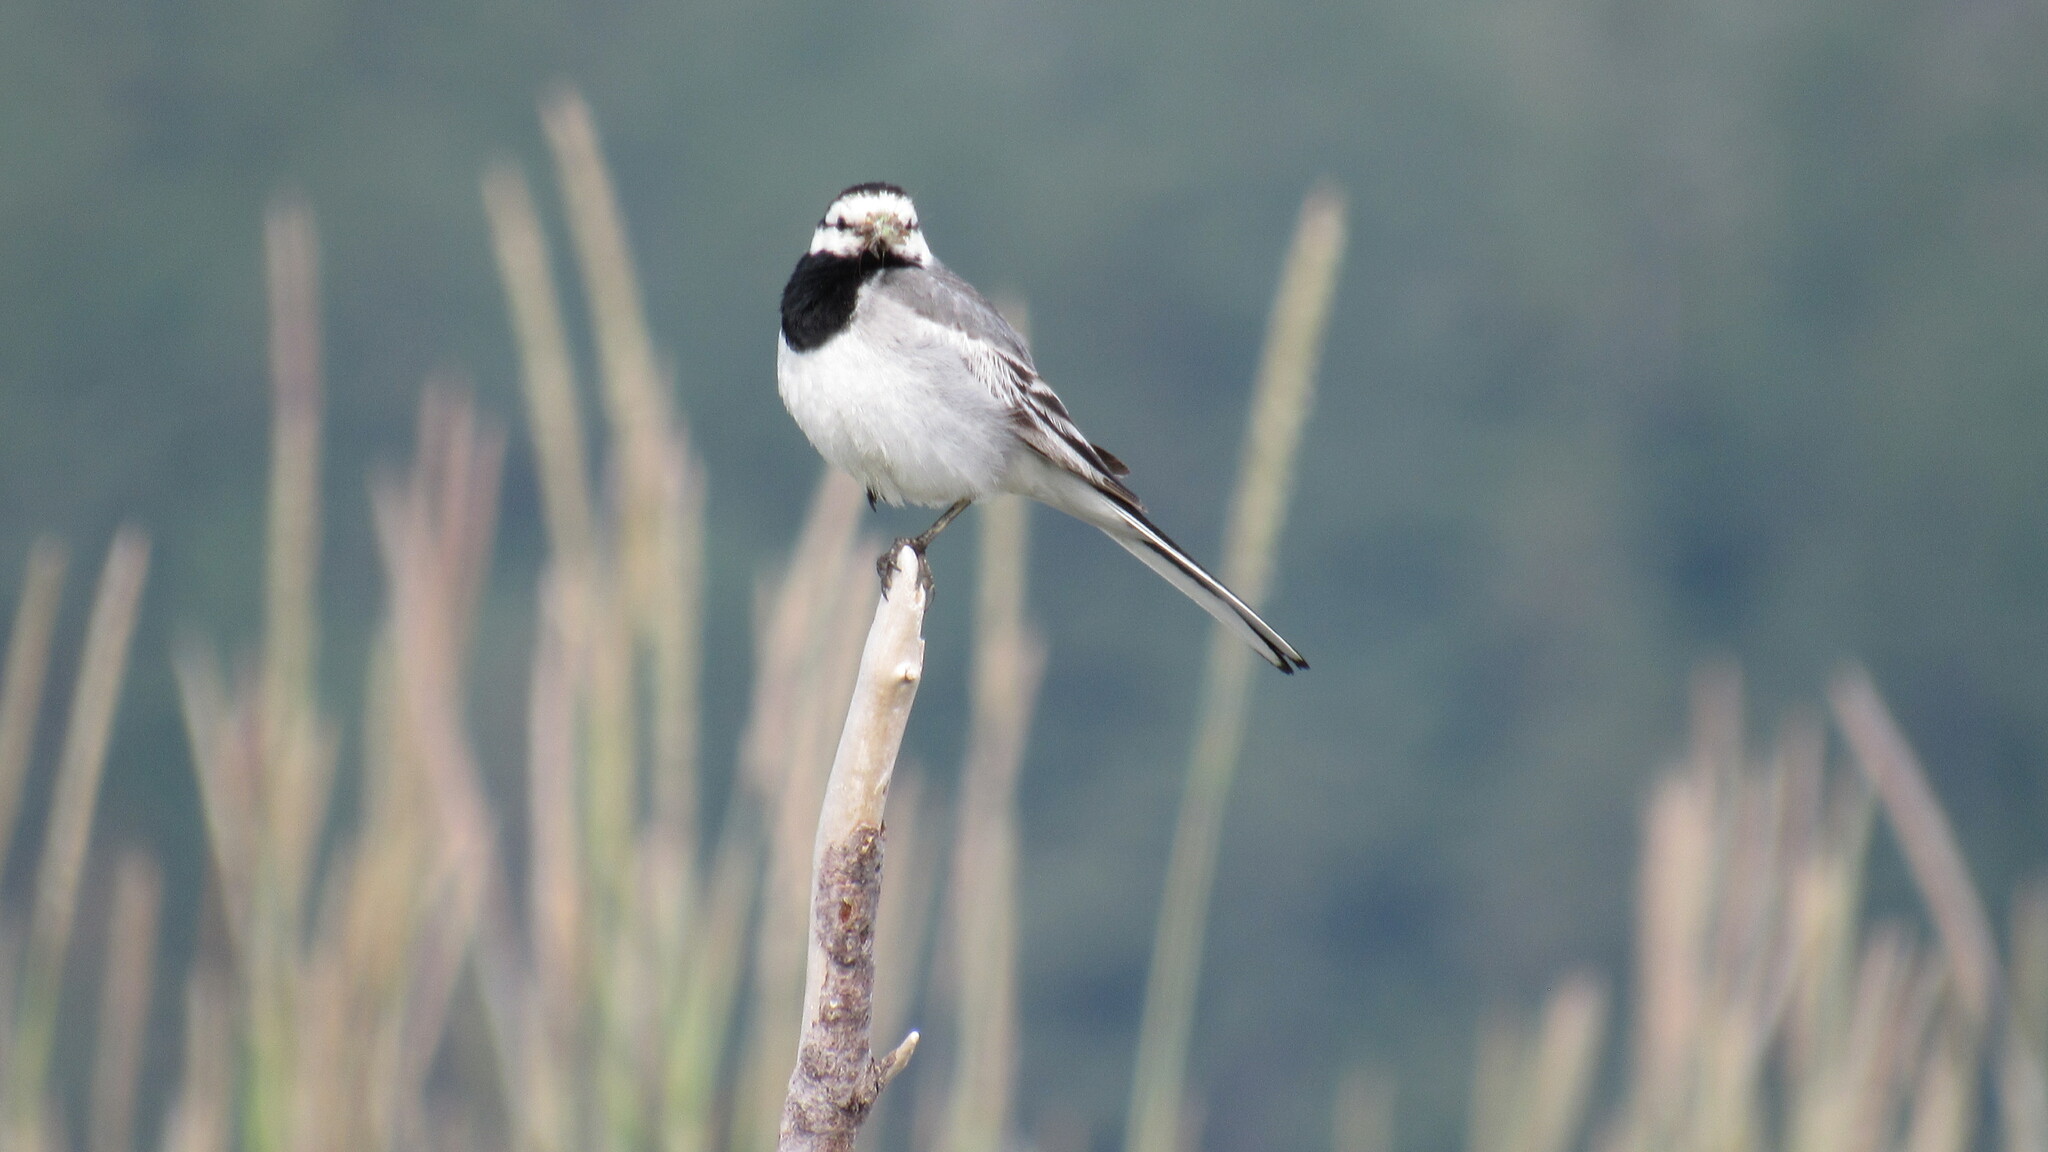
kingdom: Animalia
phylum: Chordata
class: Aves
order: Passeriformes
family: Motacillidae
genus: Motacilla
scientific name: Motacilla alba
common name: White wagtail
